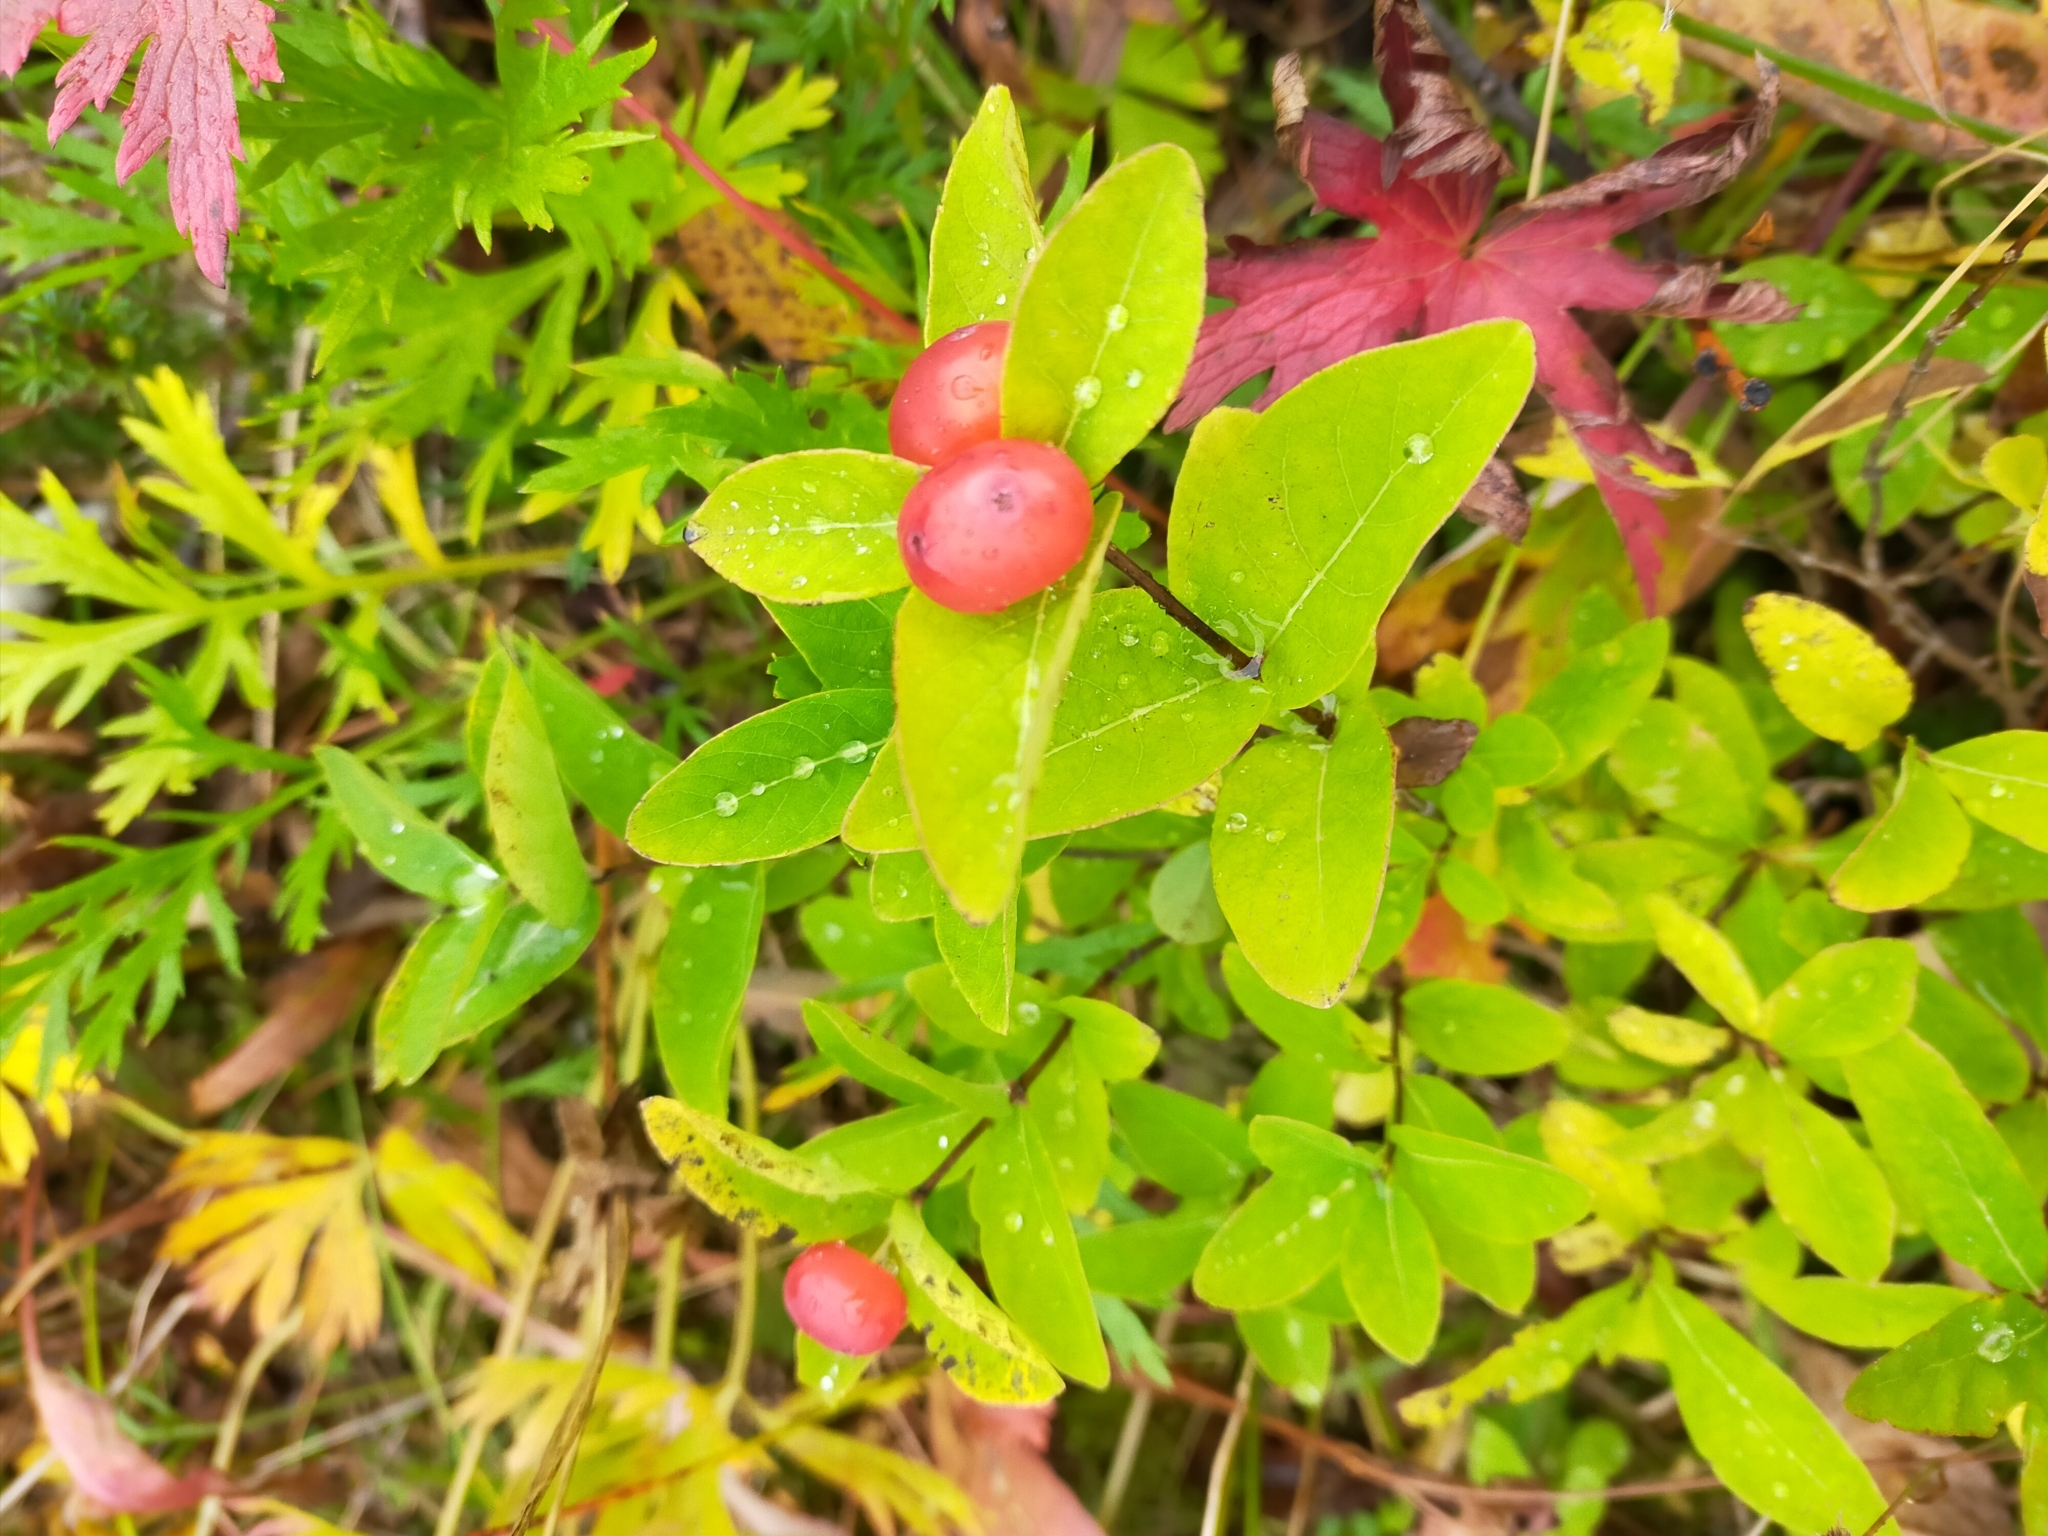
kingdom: Plantae
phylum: Tracheophyta
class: Magnoliopsida
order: Dipsacales
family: Caprifoliaceae
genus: Lonicera
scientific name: Lonicera chamissoi
